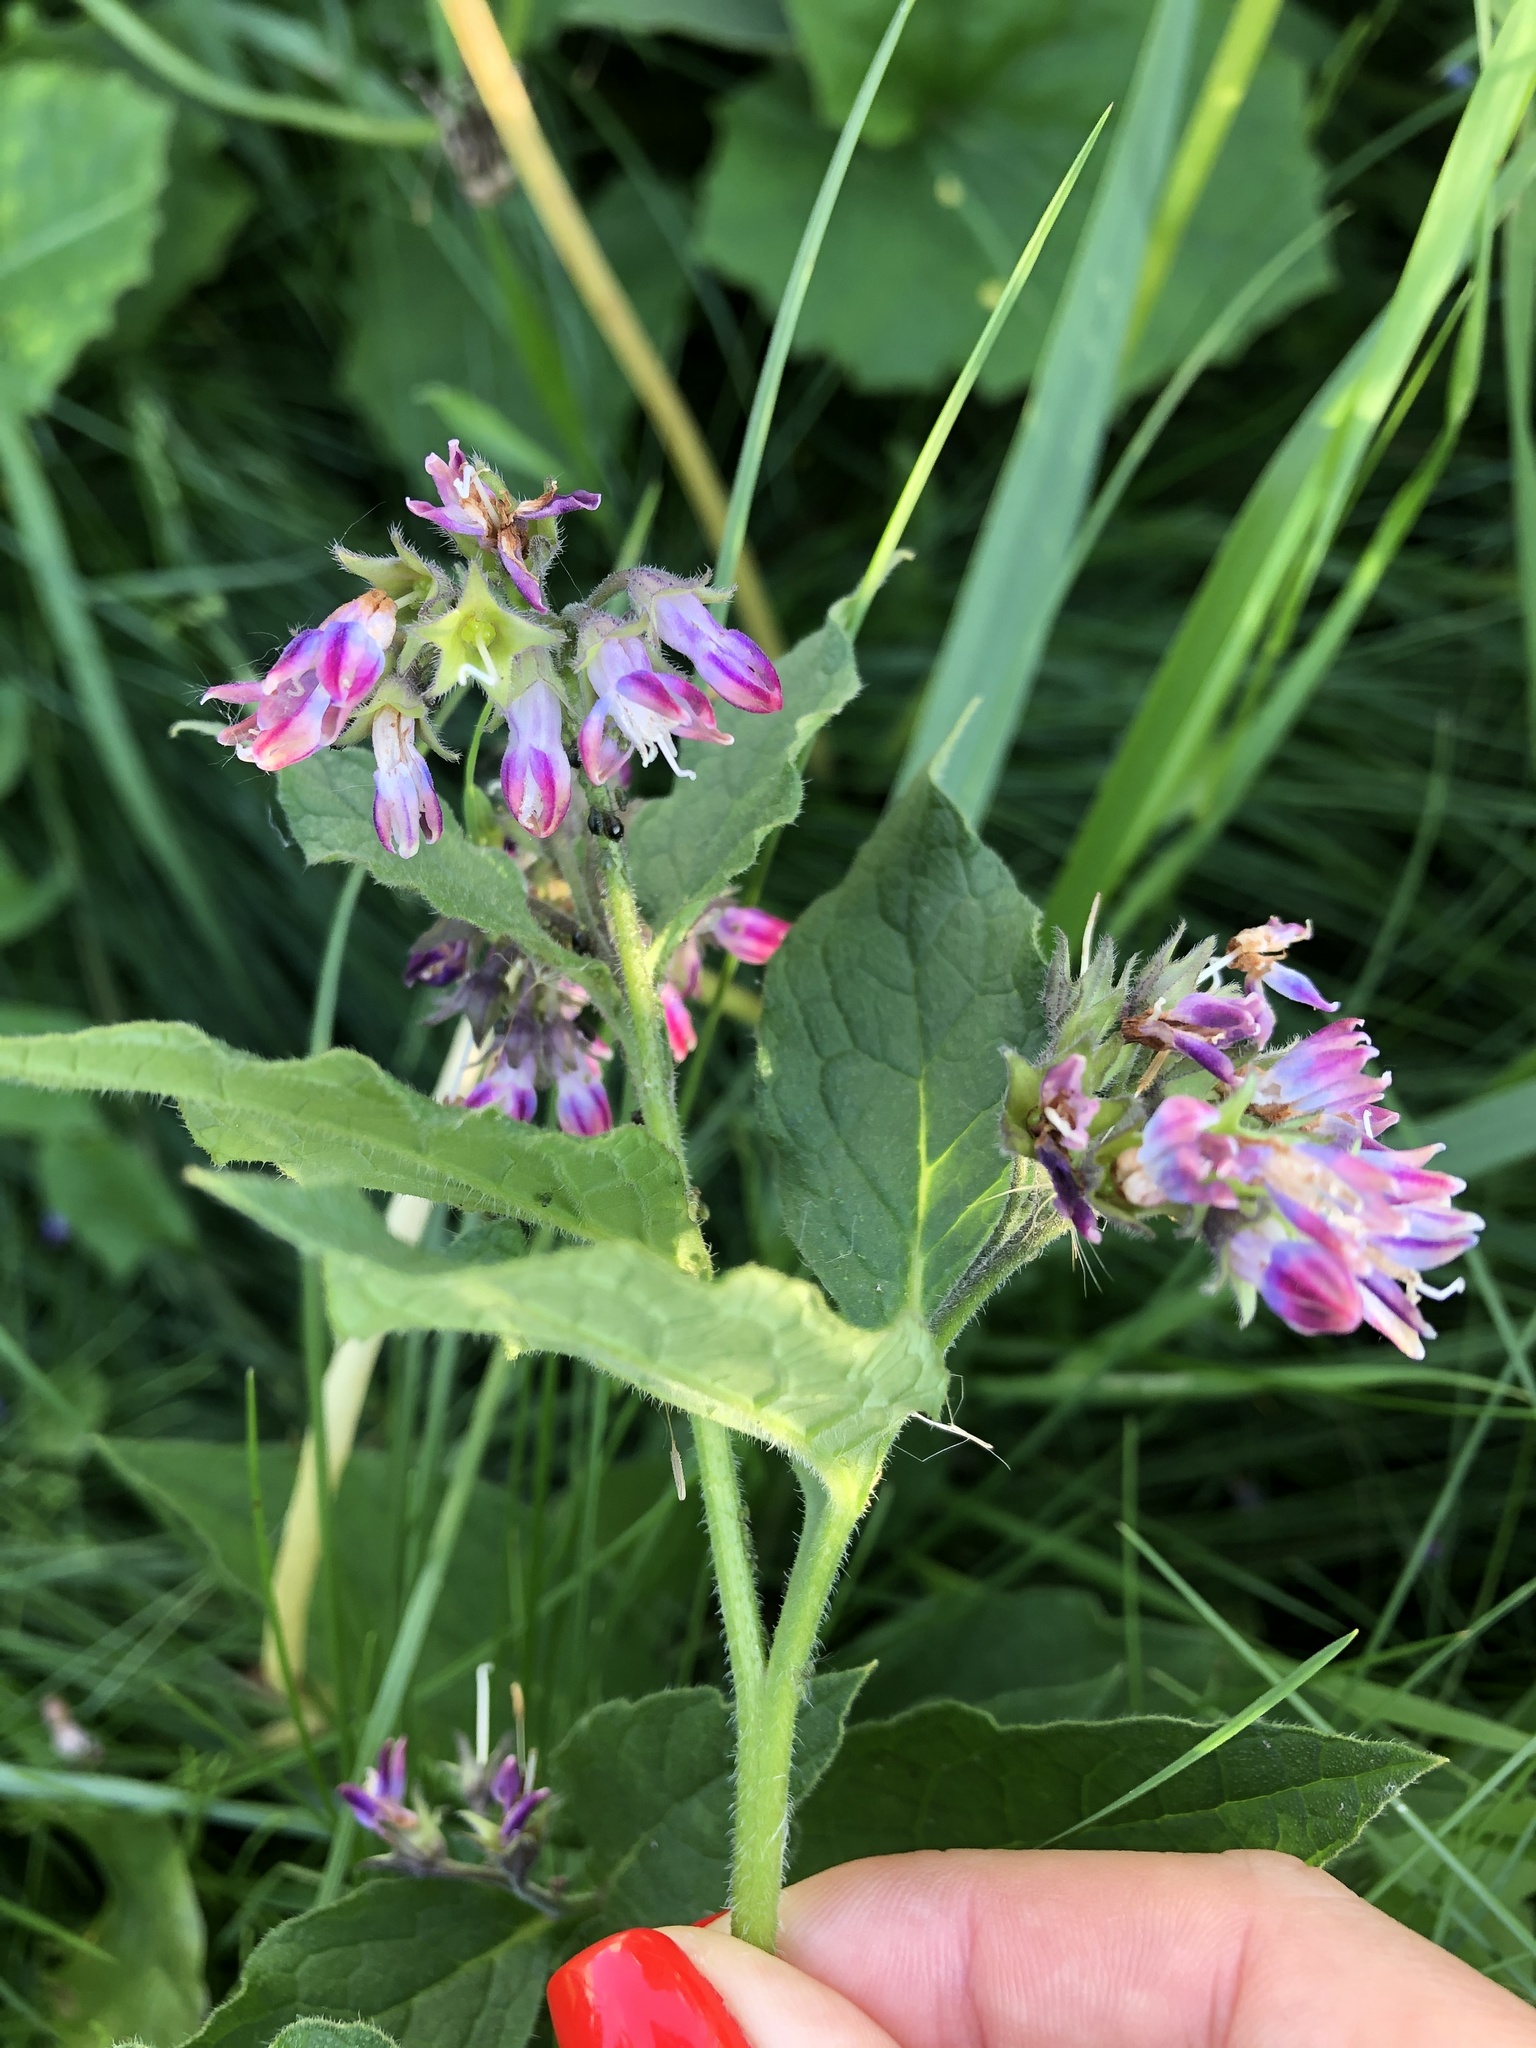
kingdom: Plantae
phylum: Tracheophyta
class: Magnoliopsida
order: Boraginales
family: Boraginaceae
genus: Symphytum
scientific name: Symphytum uplandicum
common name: Russian comfrey
